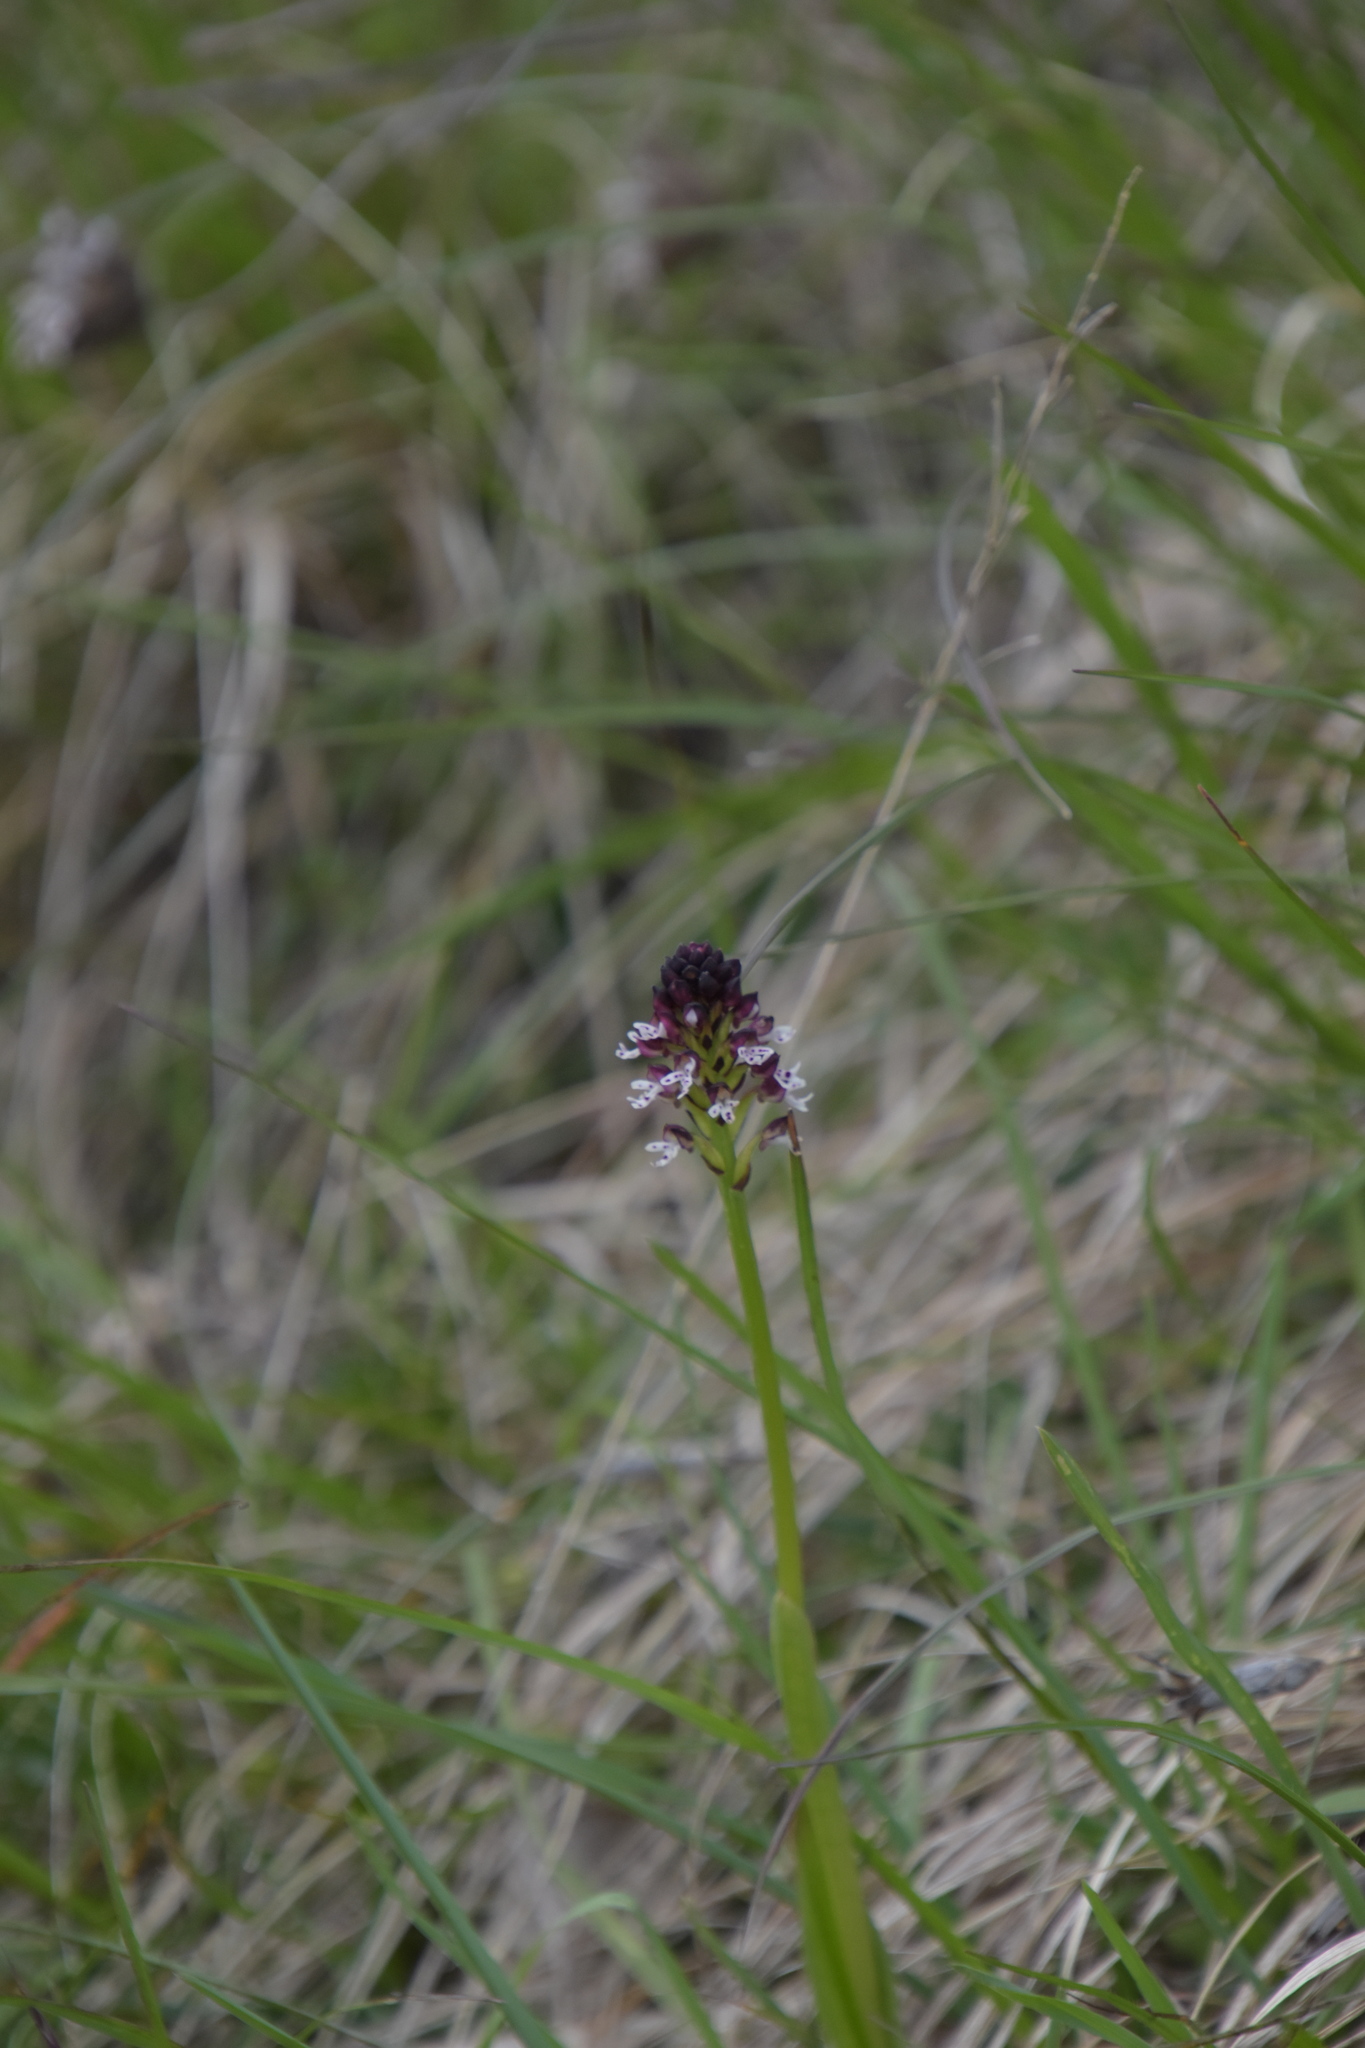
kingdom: Plantae
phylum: Tracheophyta
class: Liliopsida
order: Asparagales
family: Orchidaceae
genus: Neotinea
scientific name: Neotinea ustulata
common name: Burnt orchid
